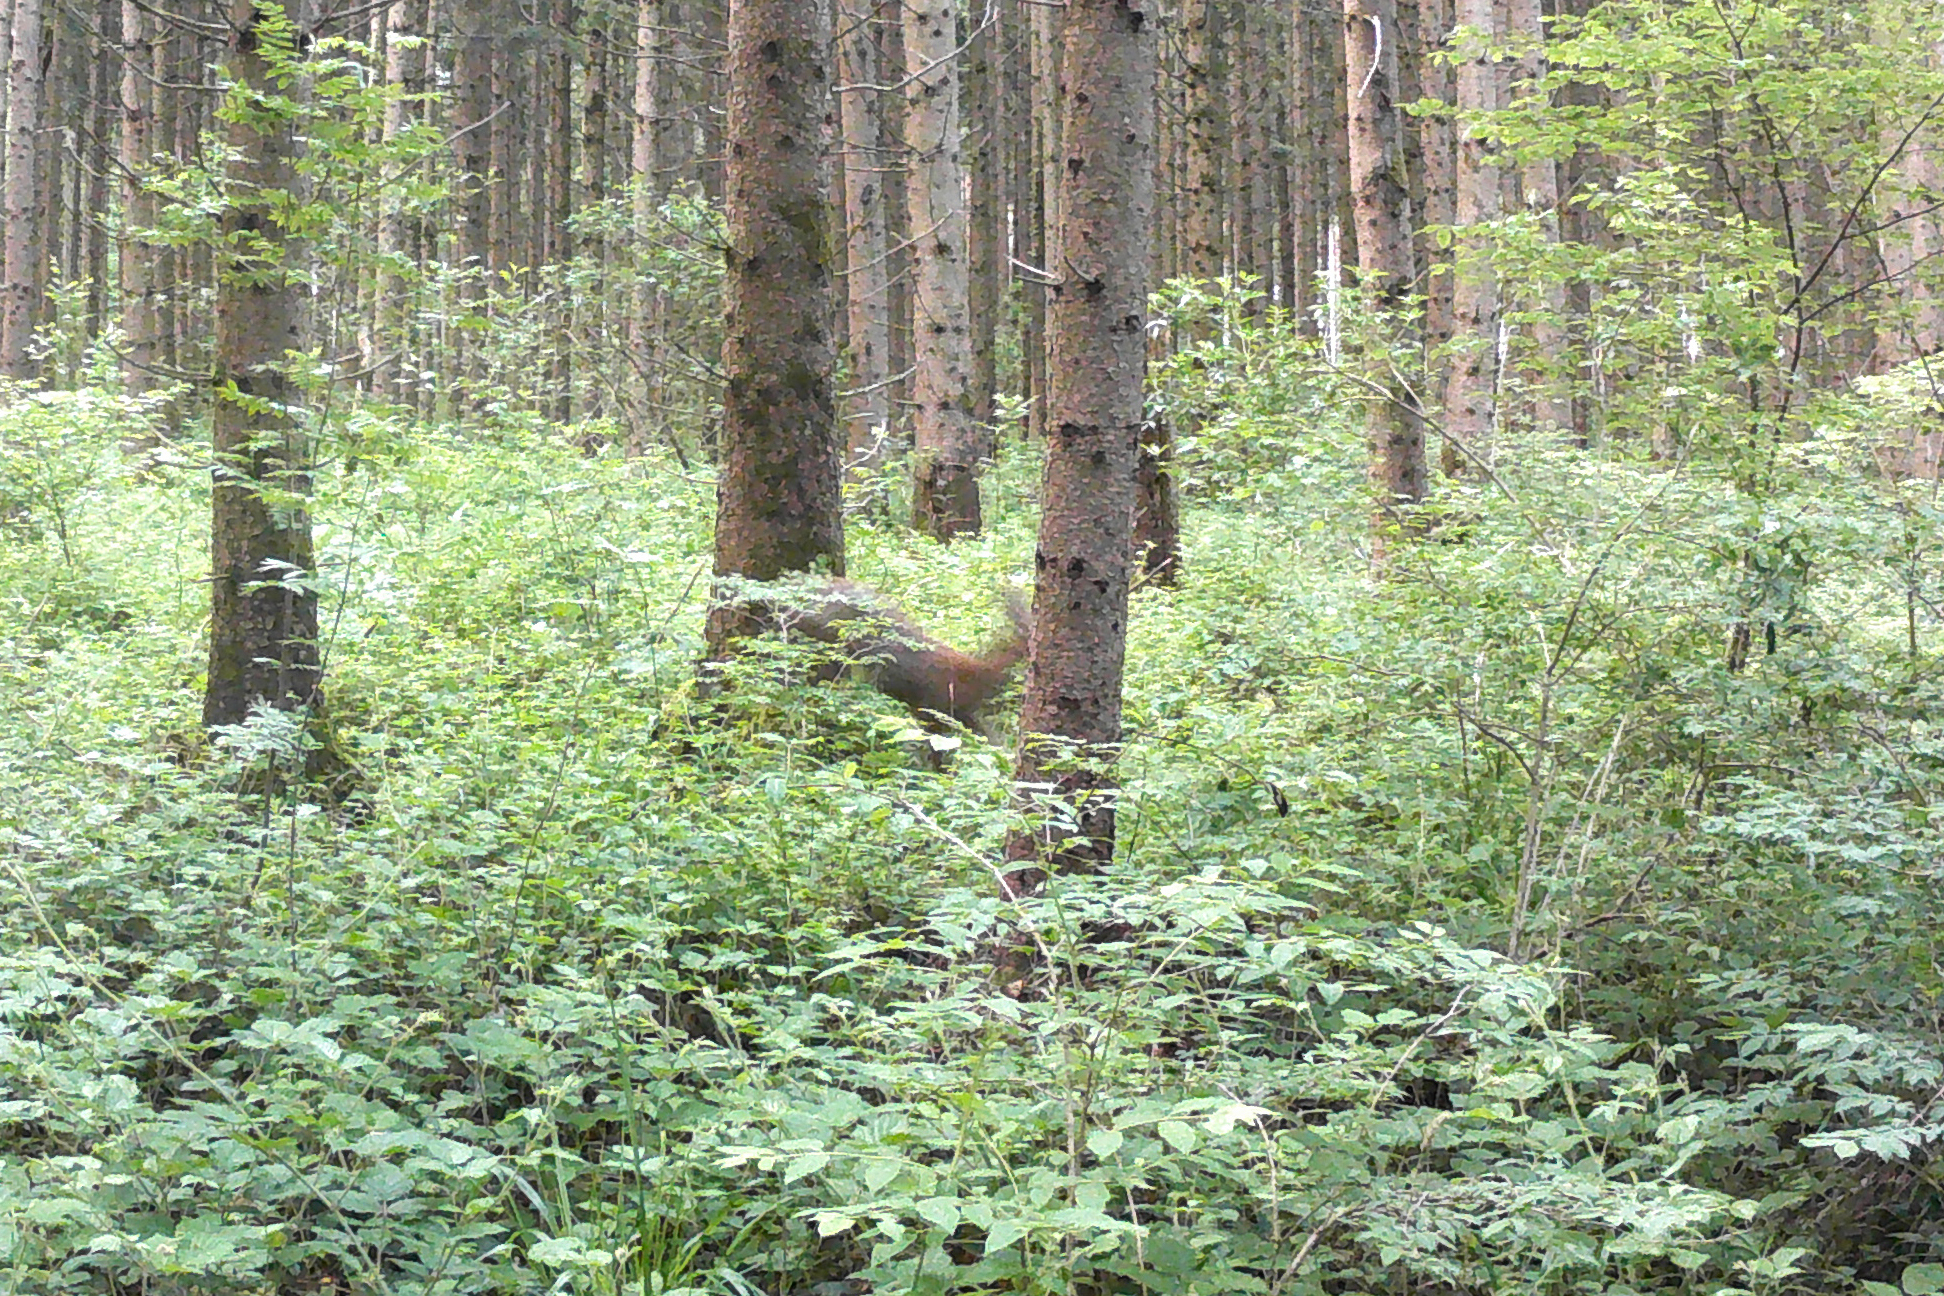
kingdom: Animalia
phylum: Chordata
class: Mammalia
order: Artiodactyla
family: Cervidae
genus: Capreolus
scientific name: Capreolus capreolus
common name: Western roe deer
